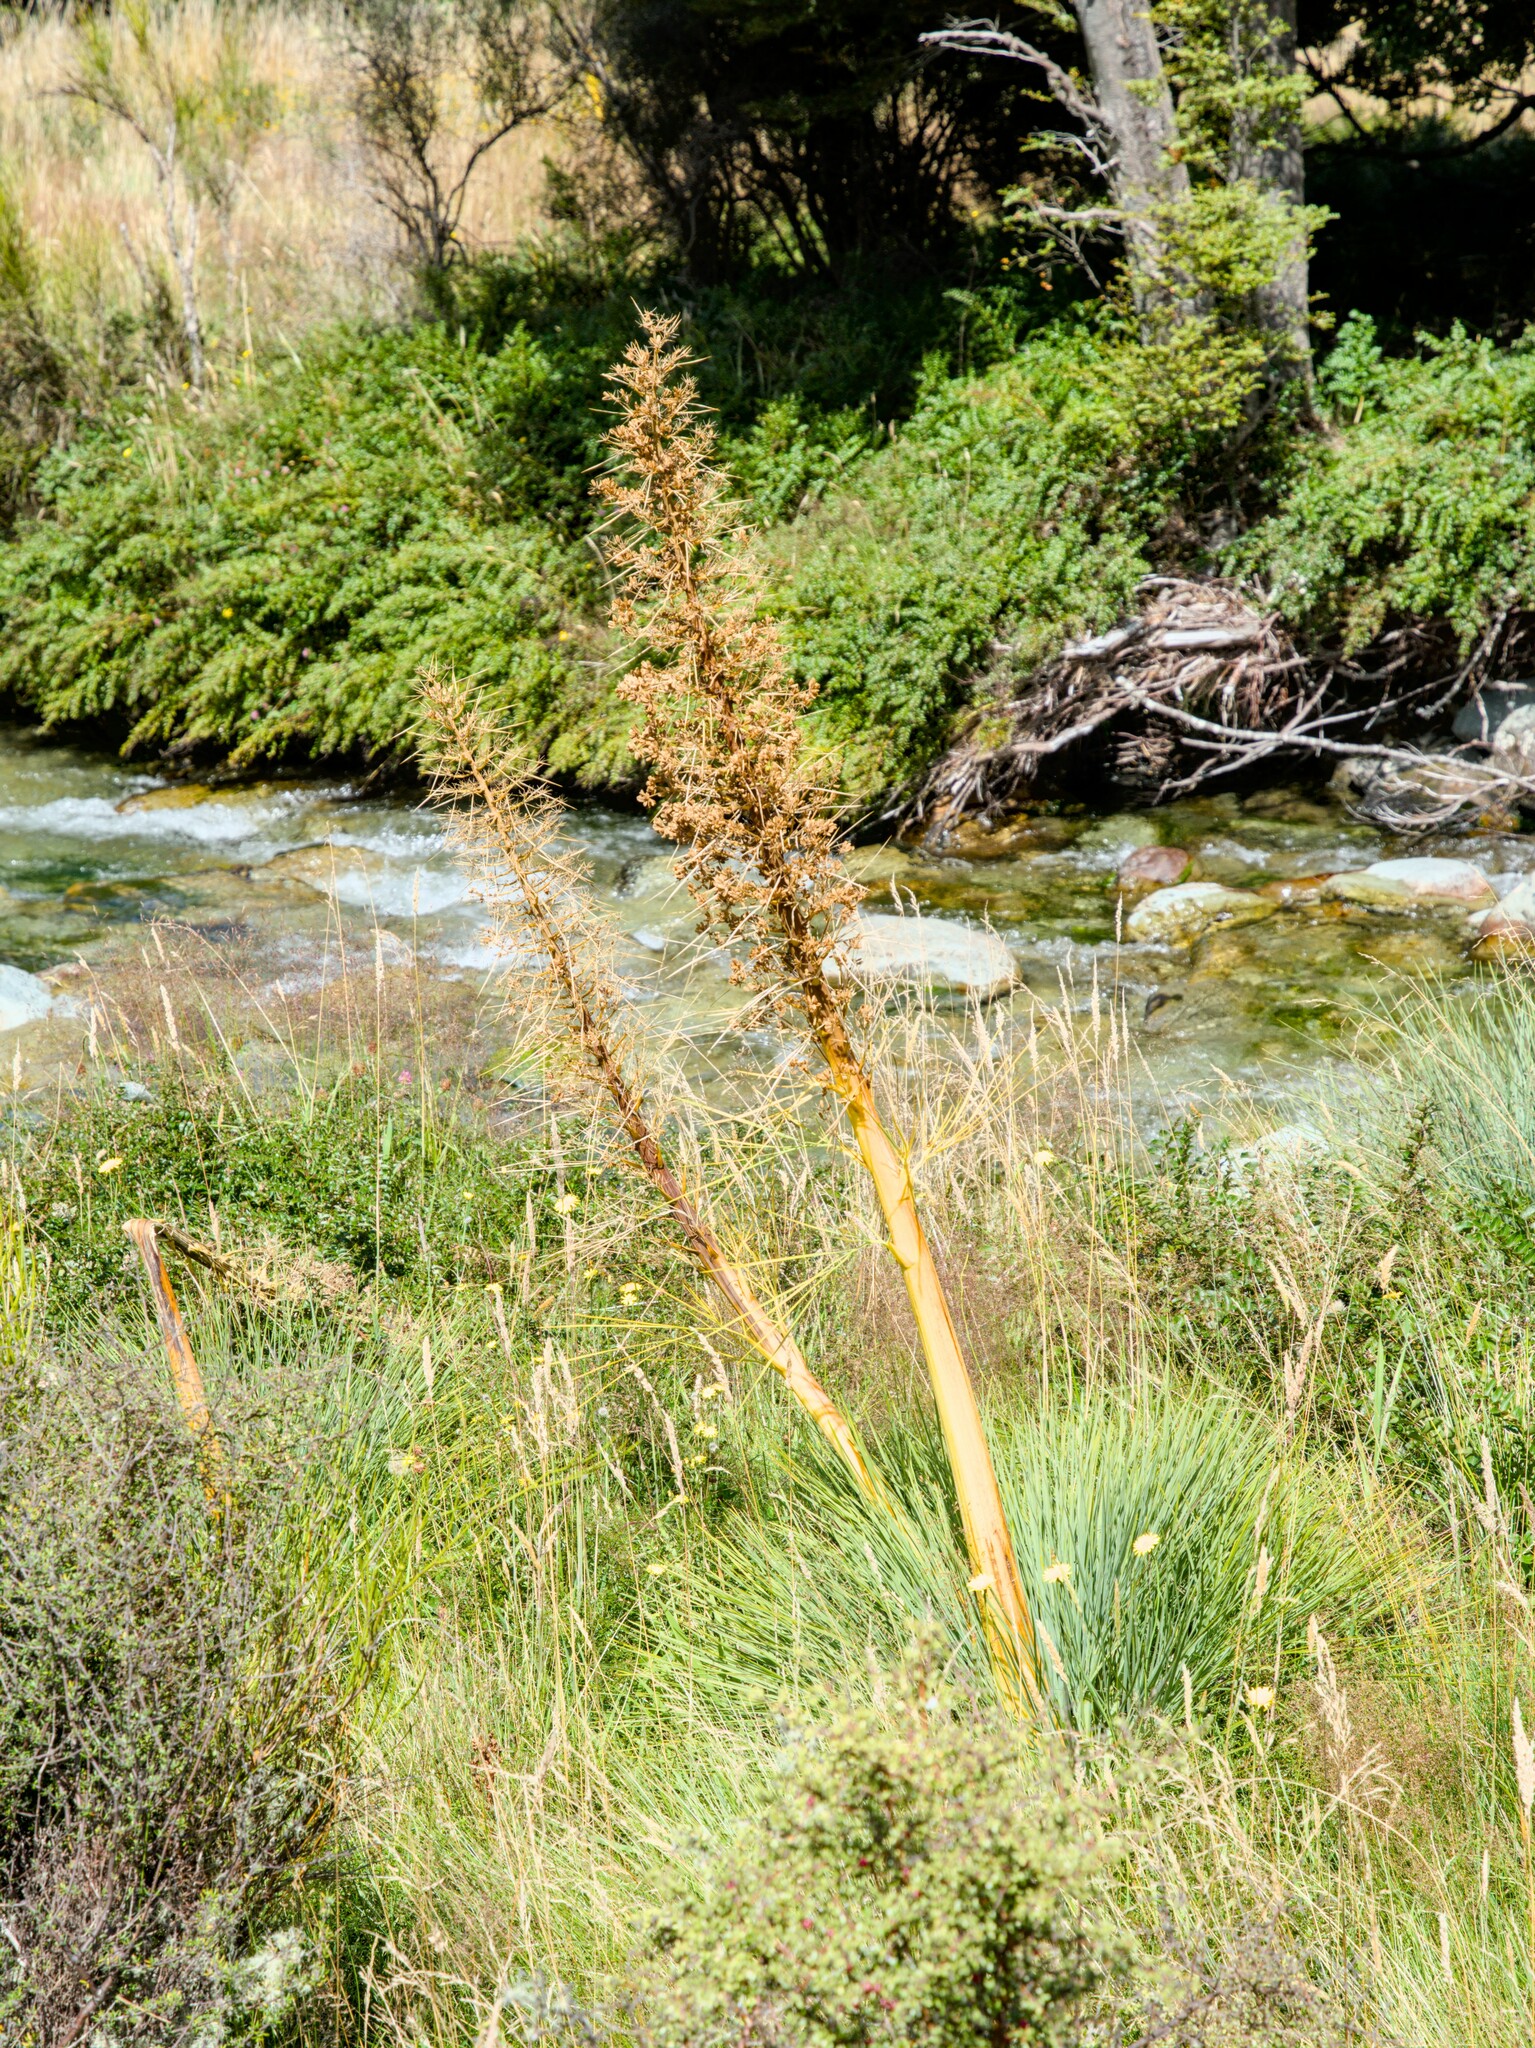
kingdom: Plantae
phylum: Tracheophyta
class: Magnoliopsida
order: Apiales
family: Apiaceae
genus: Aciphylla
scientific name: Aciphylla glaucescens
